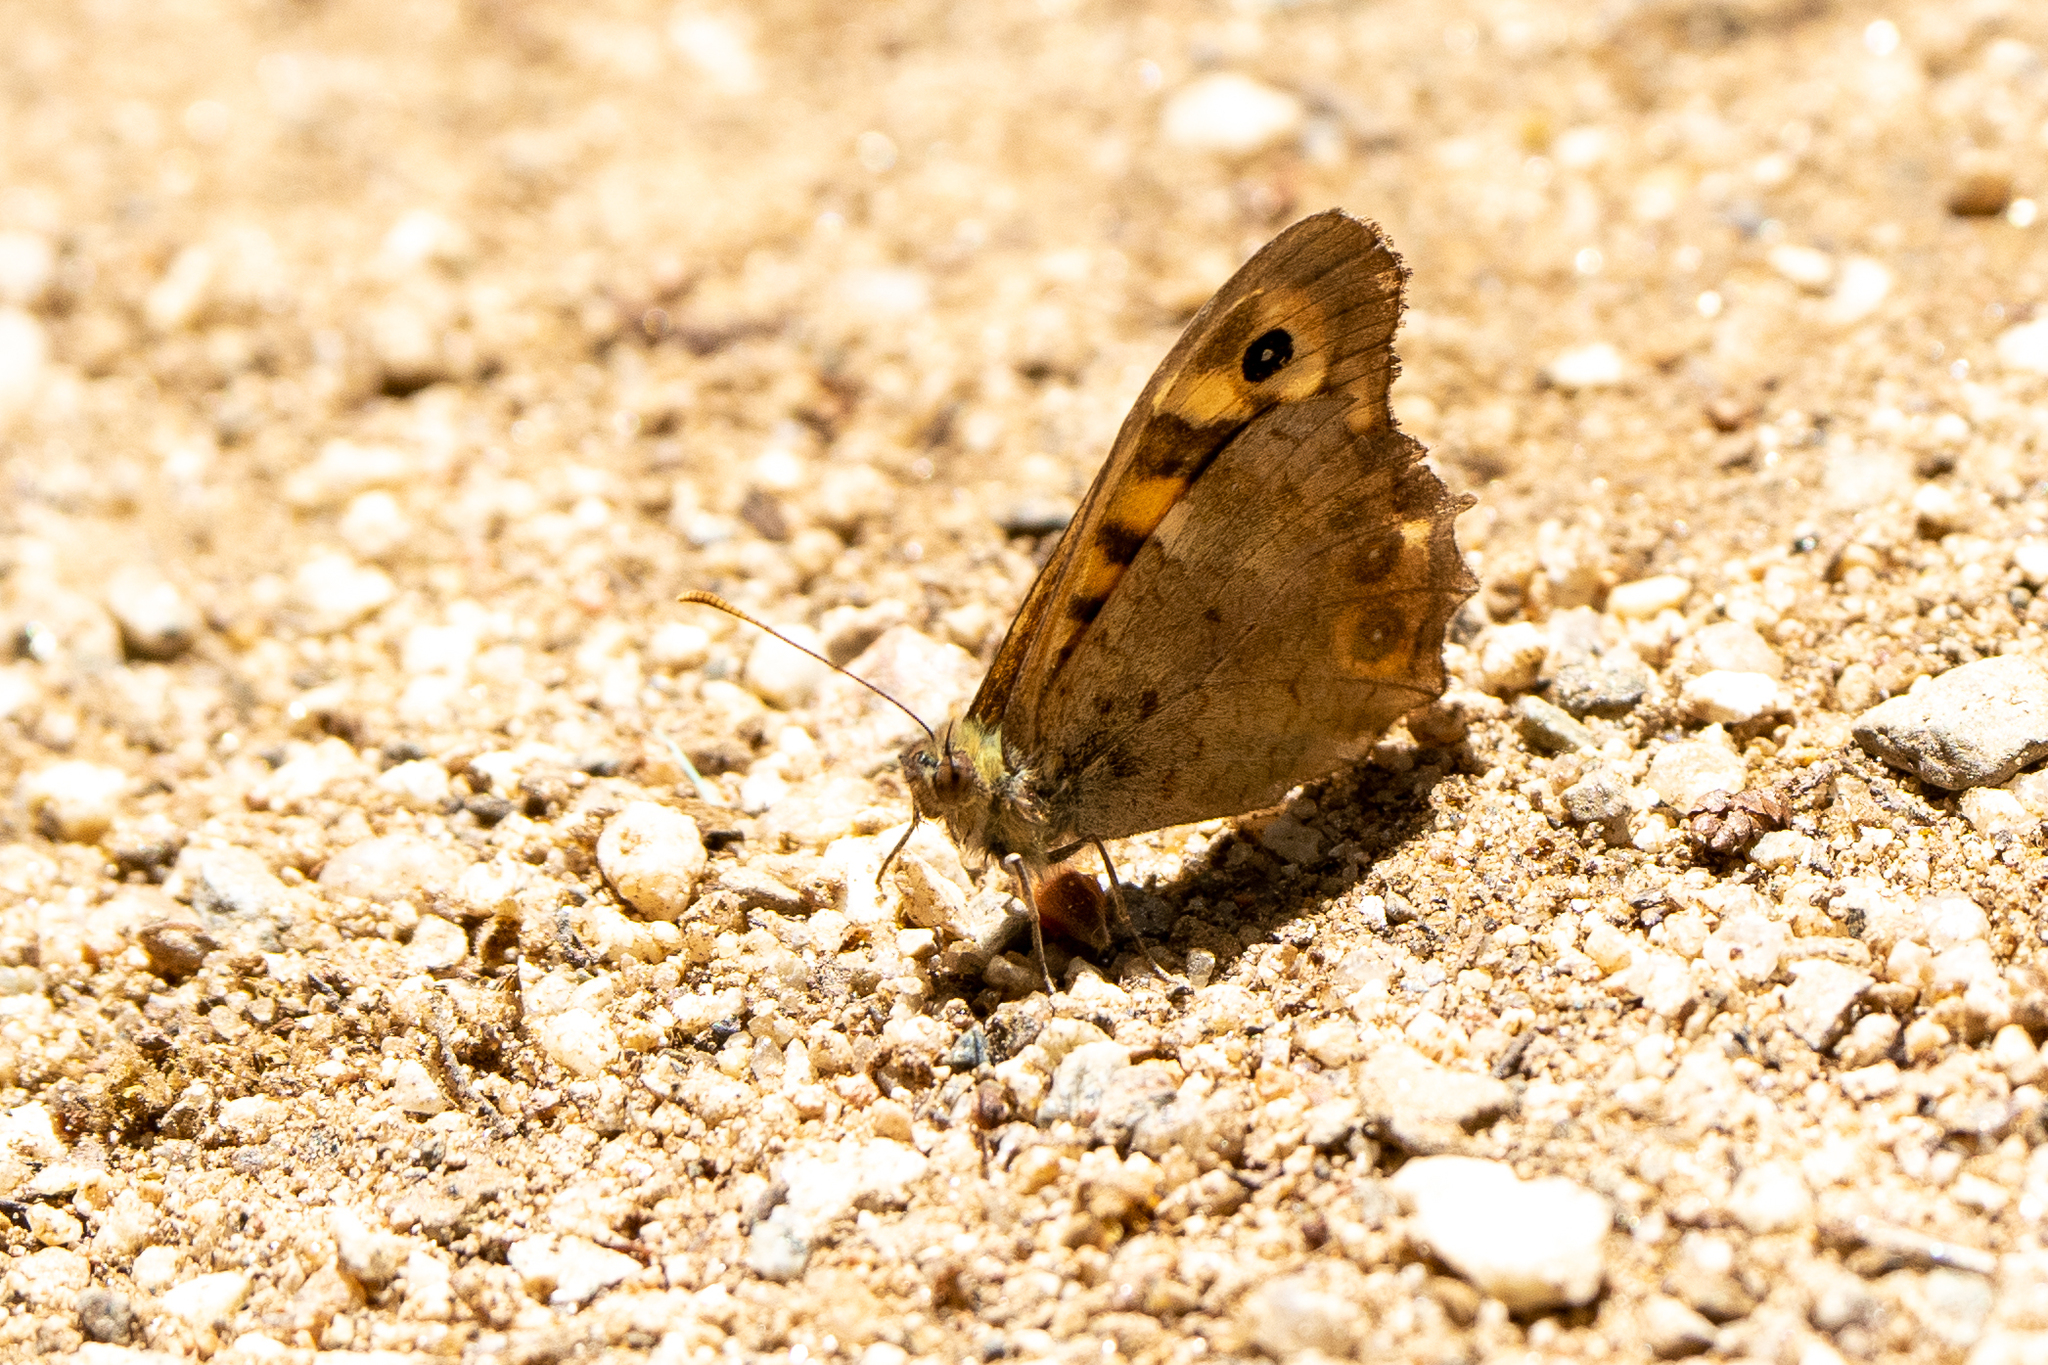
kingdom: Animalia
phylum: Arthropoda
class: Insecta
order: Lepidoptera
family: Nymphalidae
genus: Pararge
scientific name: Pararge aegeria
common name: Speckled wood
